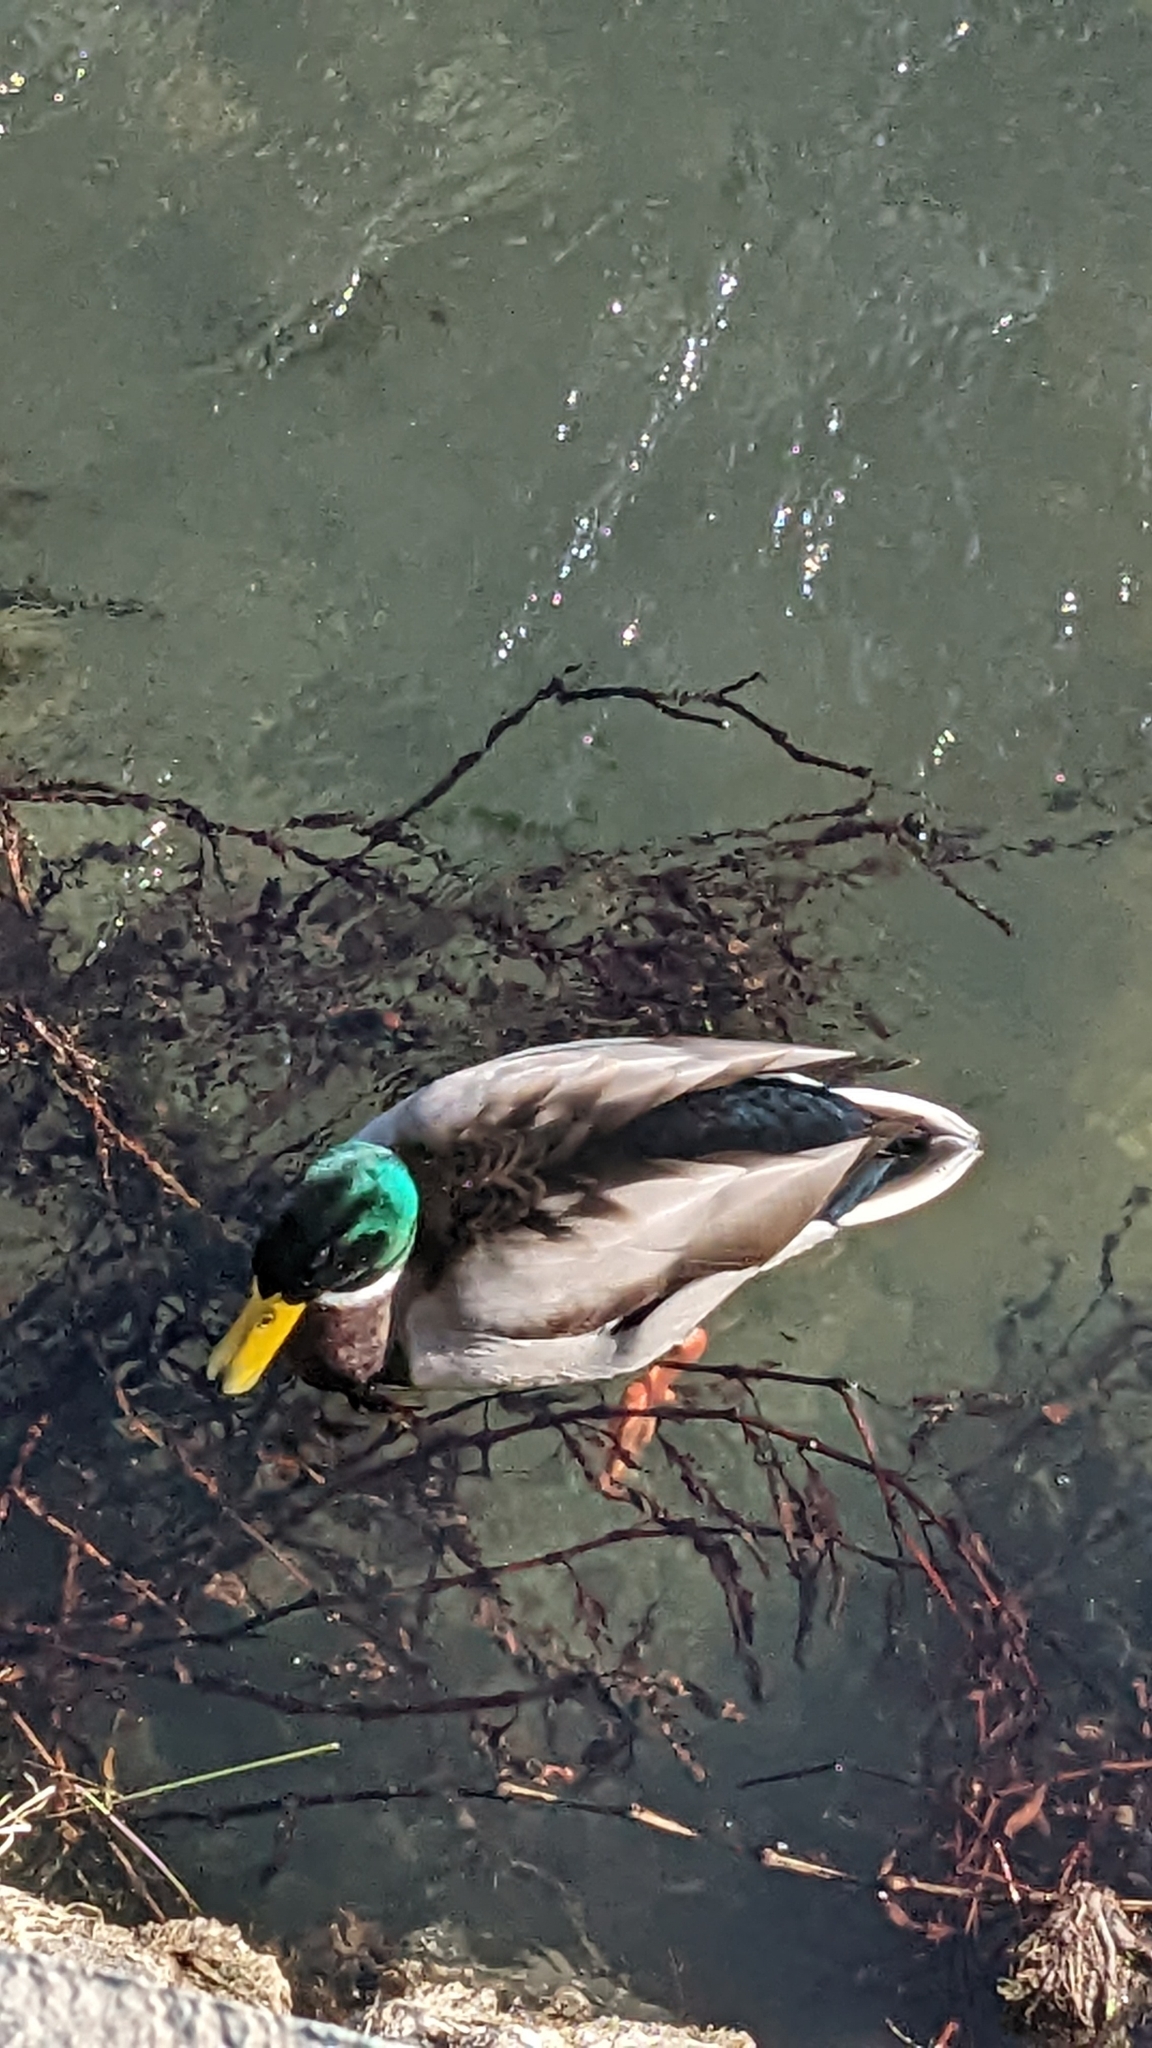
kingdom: Animalia
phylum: Chordata
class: Aves
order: Anseriformes
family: Anatidae
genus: Anas
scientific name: Anas platyrhynchos
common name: Mallard
